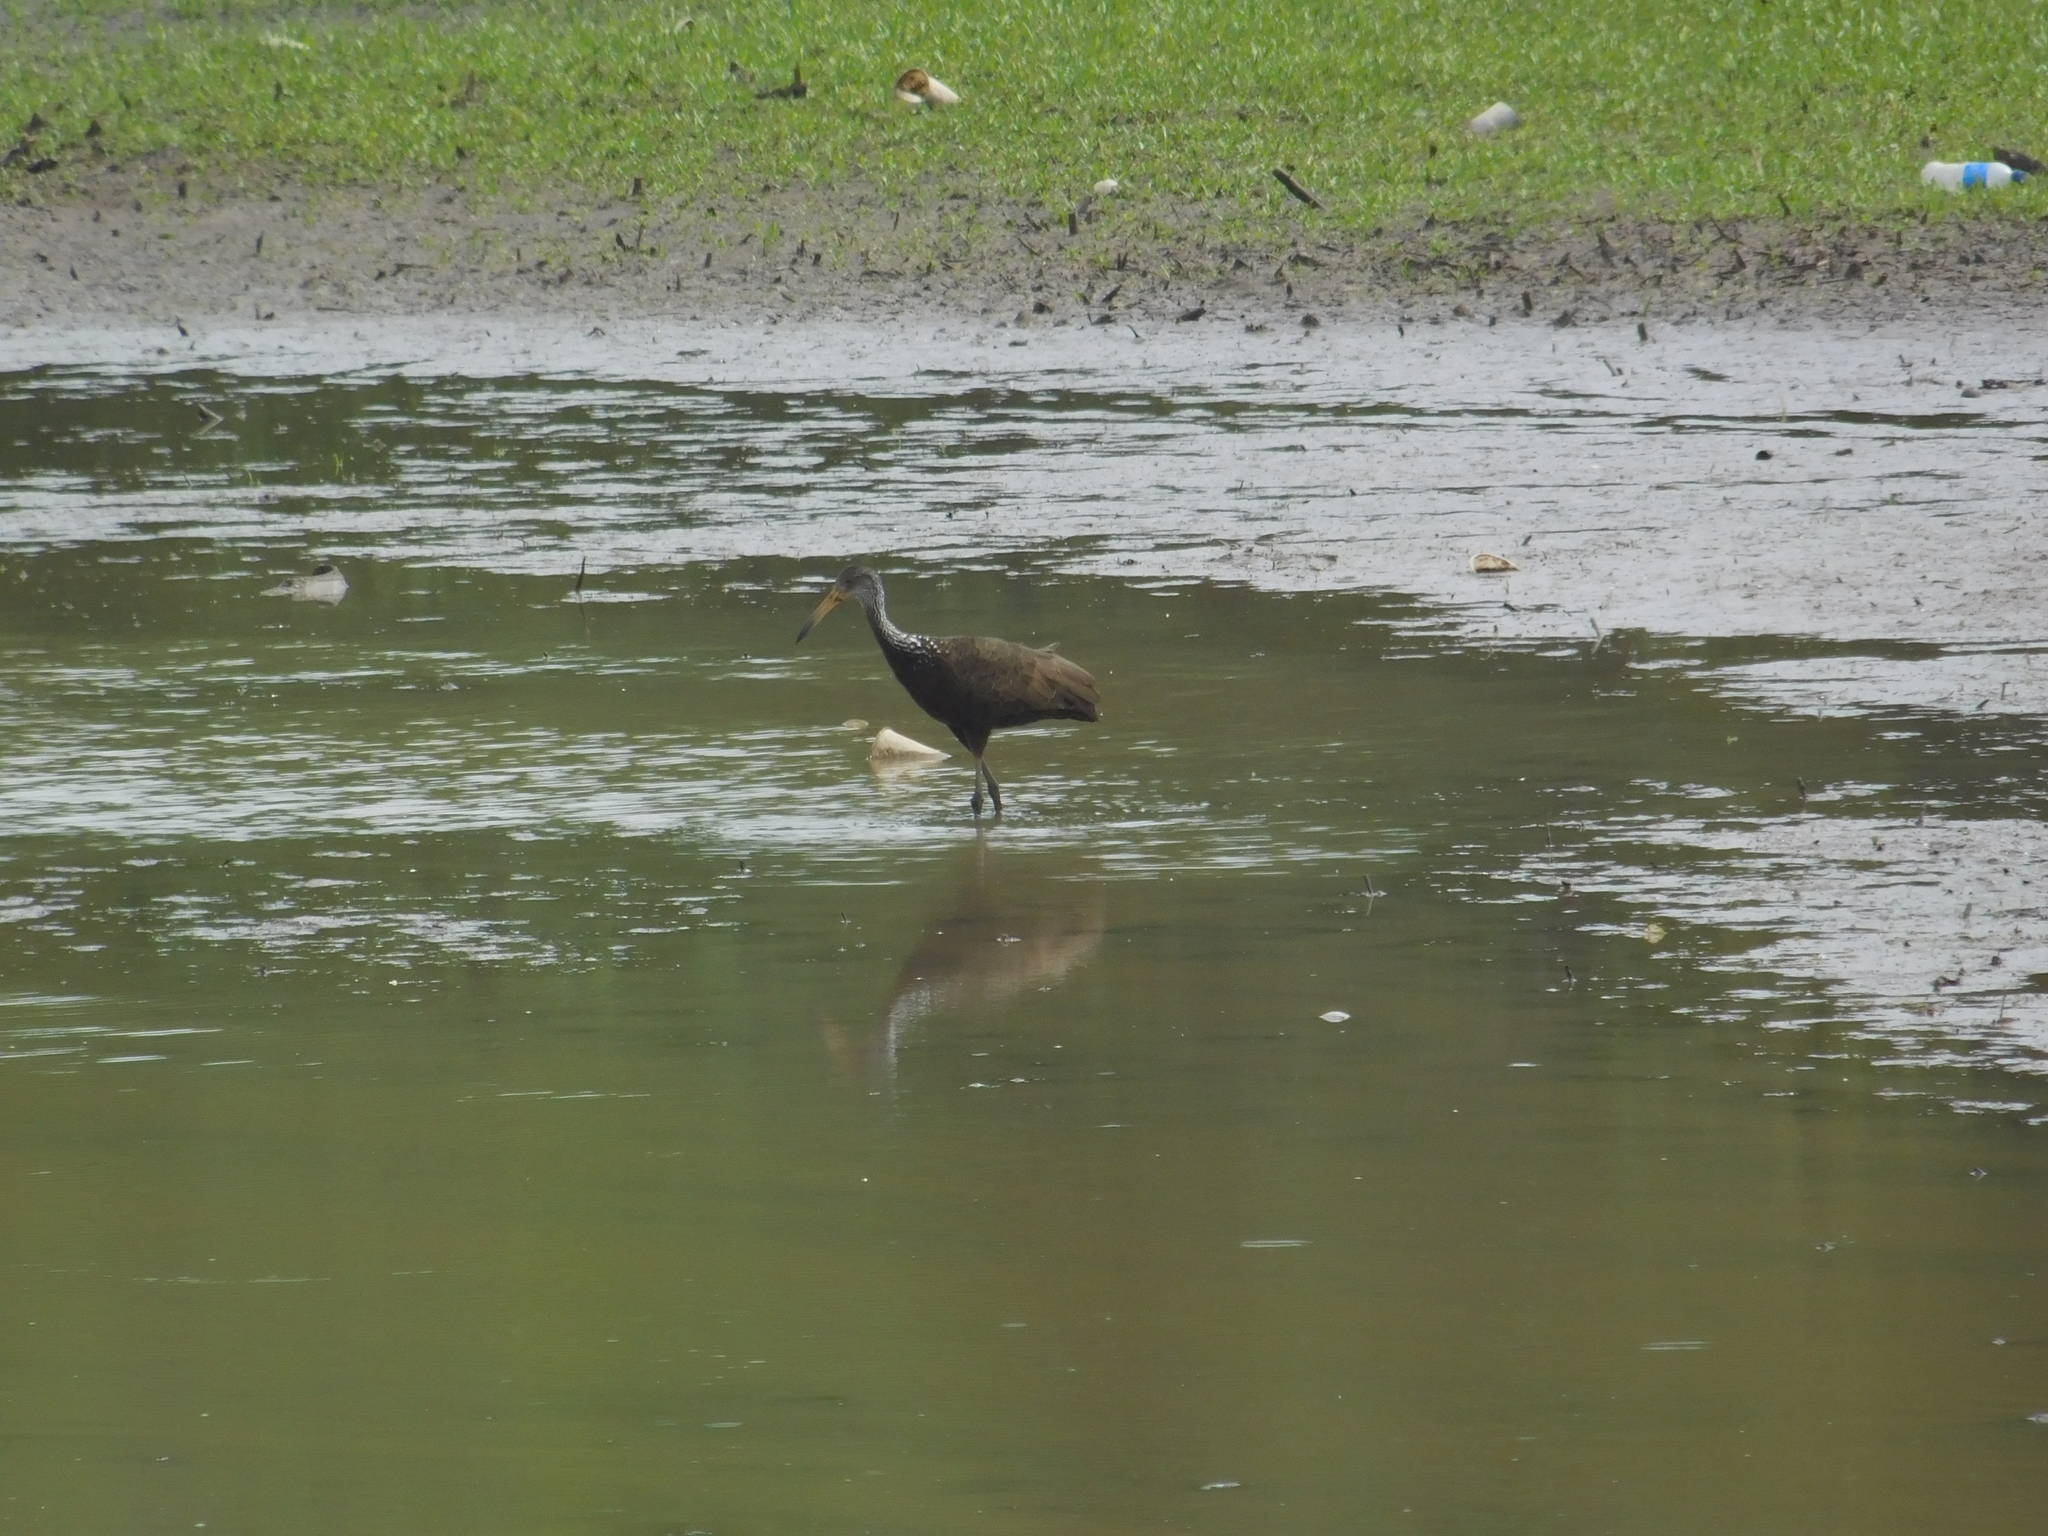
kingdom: Animalia
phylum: Chordata
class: Aves
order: Gruiformes
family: Aramidae
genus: Aramus
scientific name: Aramus guarauna
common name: Limpkin
